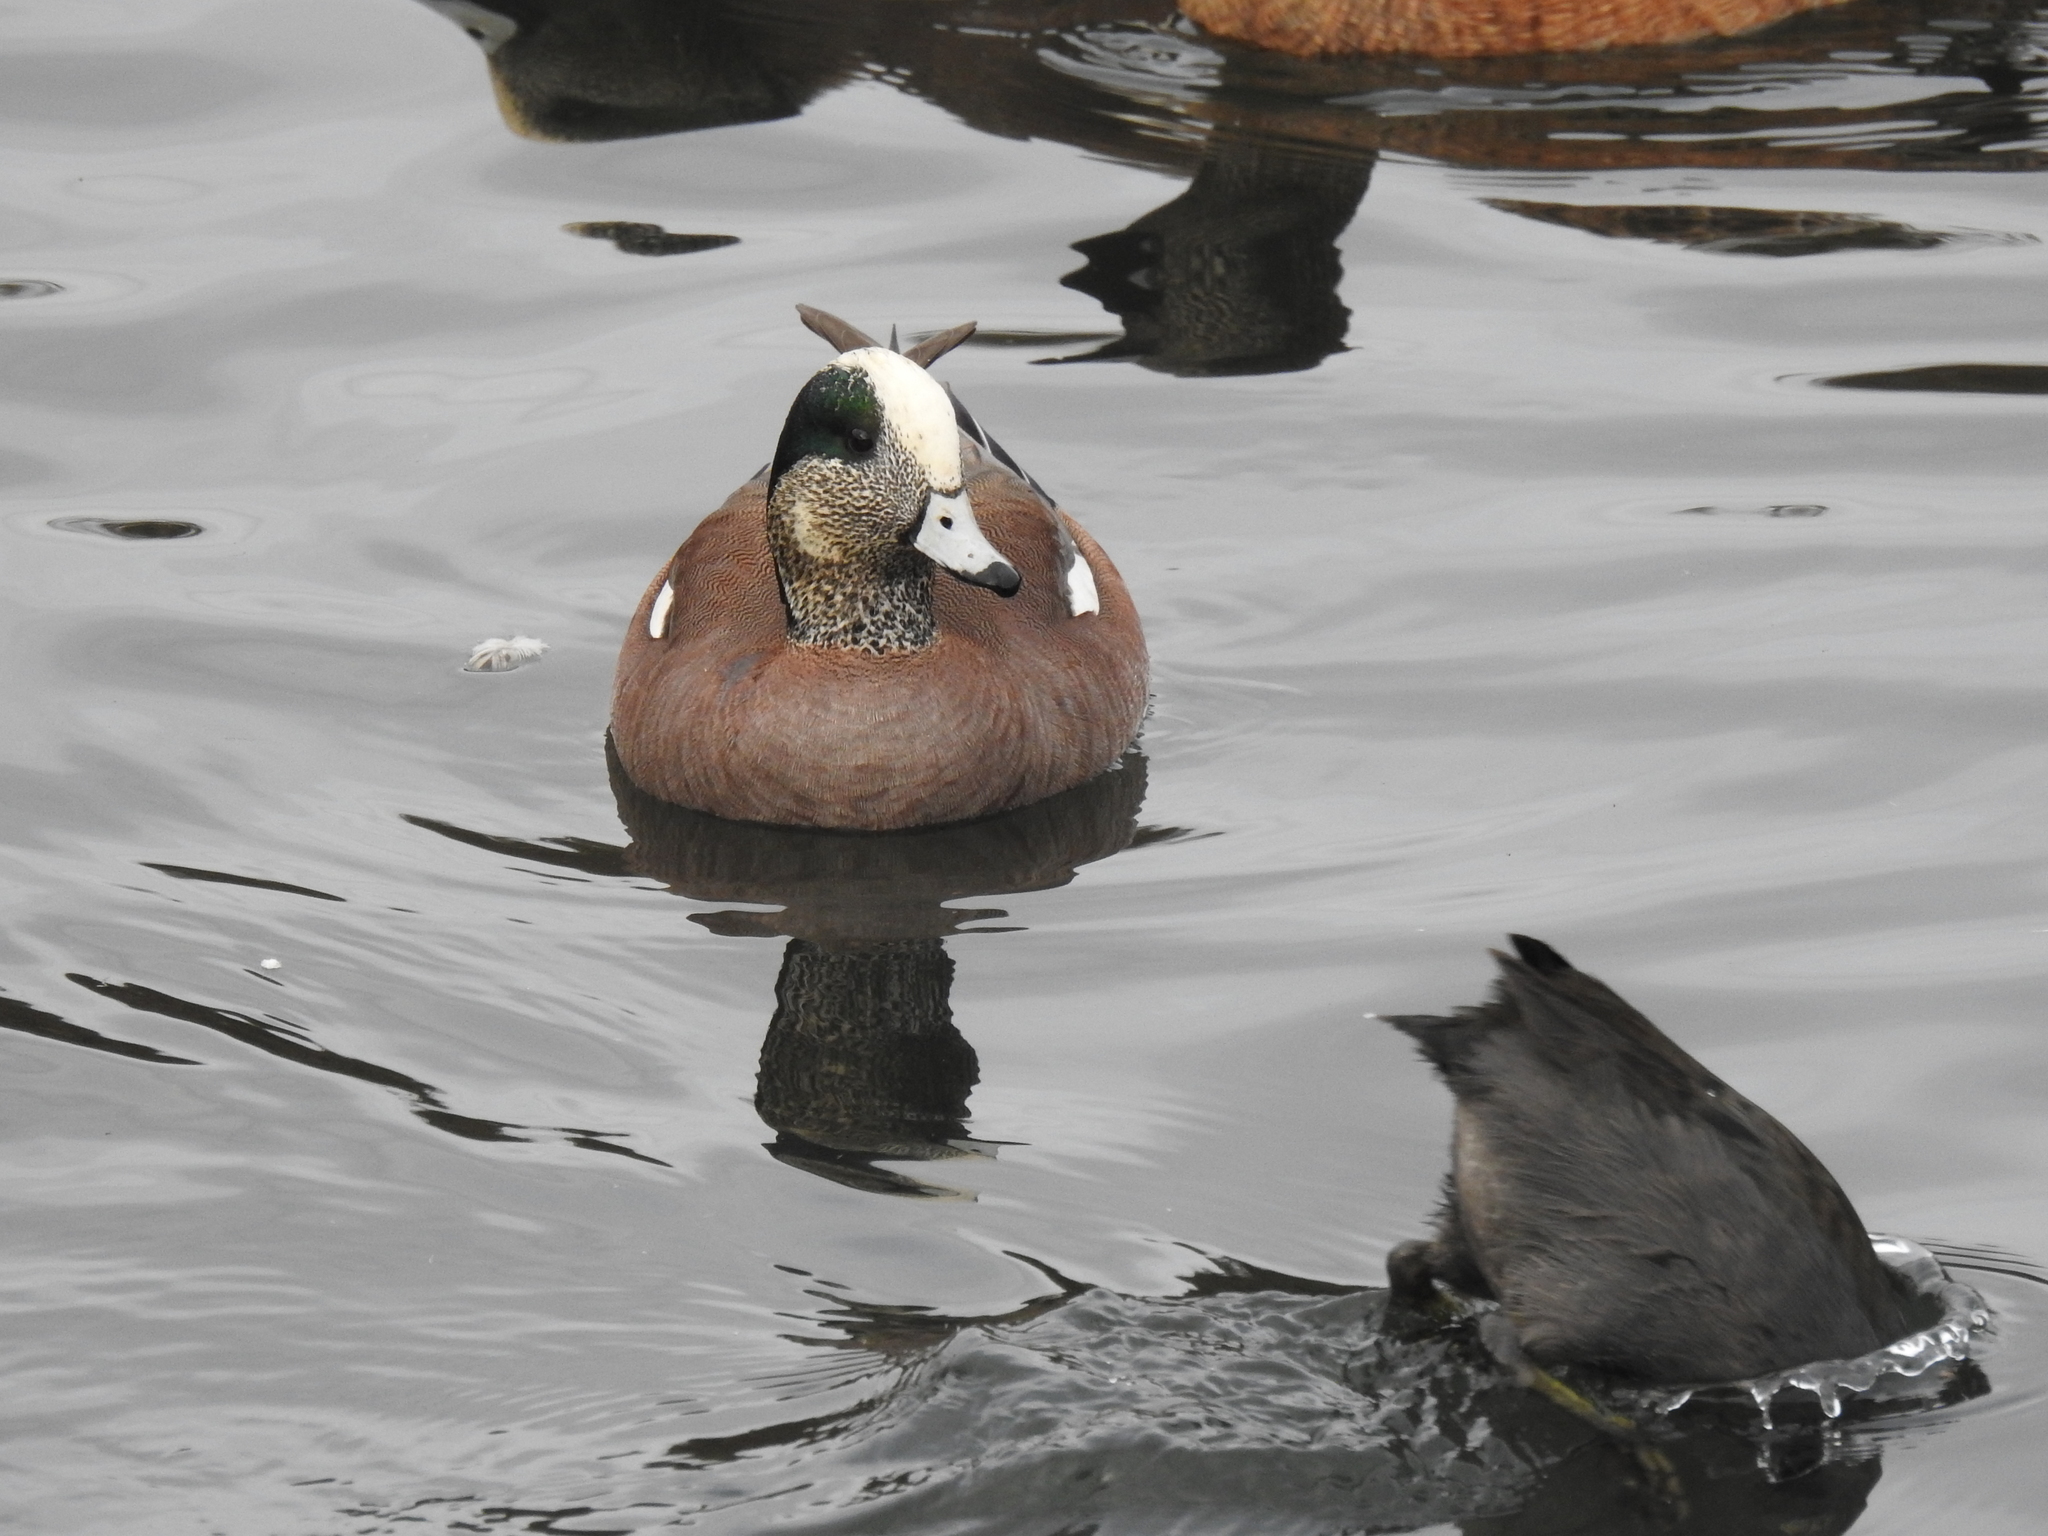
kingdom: Animalia
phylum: Chordata
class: Aves
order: Gruiformes
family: Rallidae
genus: Fulica
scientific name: Fulica americana
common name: American coot
